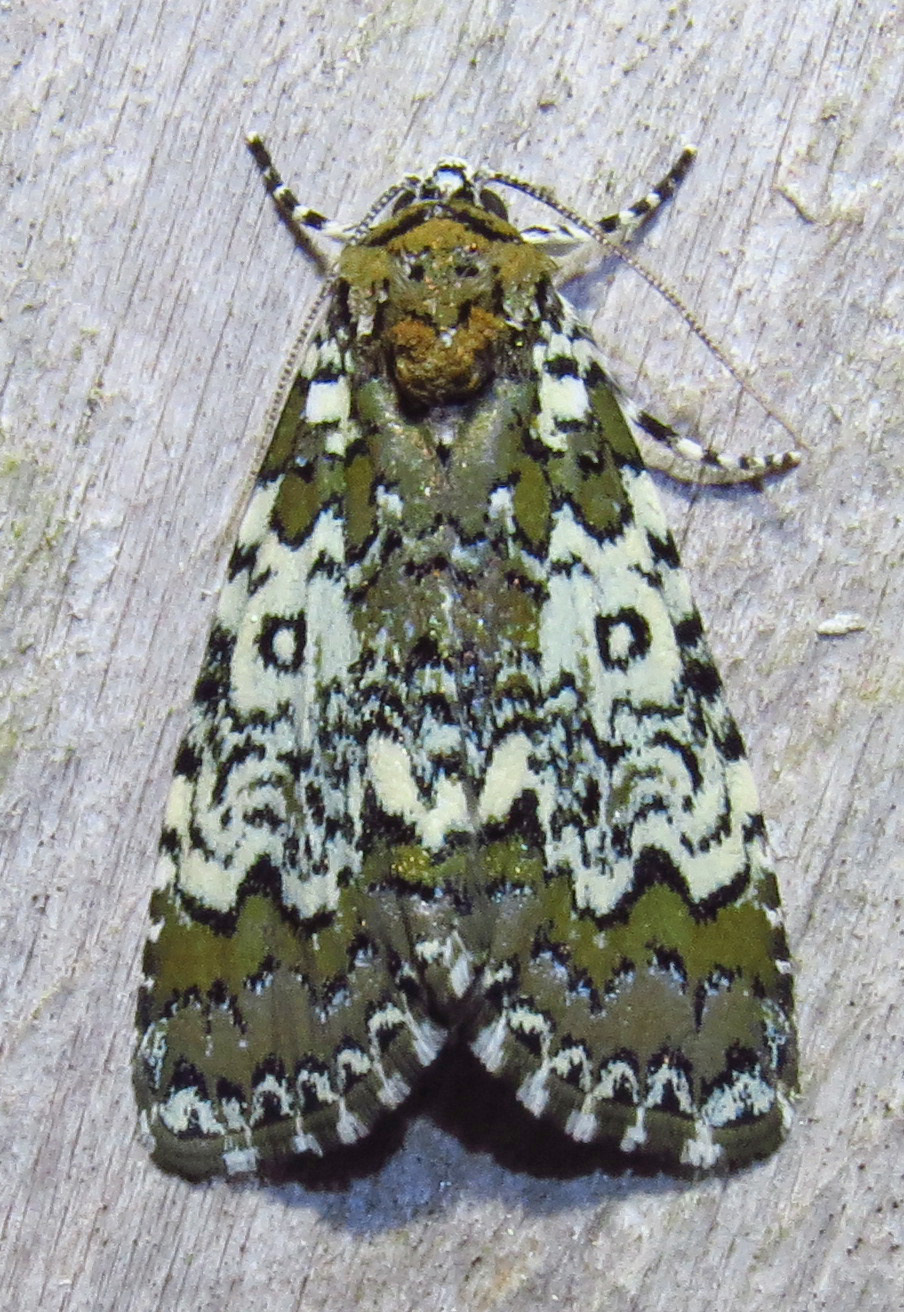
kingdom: Animalia
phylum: Arthropoda
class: Insecta
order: Lepidoptera
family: Noctuidae
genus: Cerma
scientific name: Cerma cora
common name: Bird dropping moth
